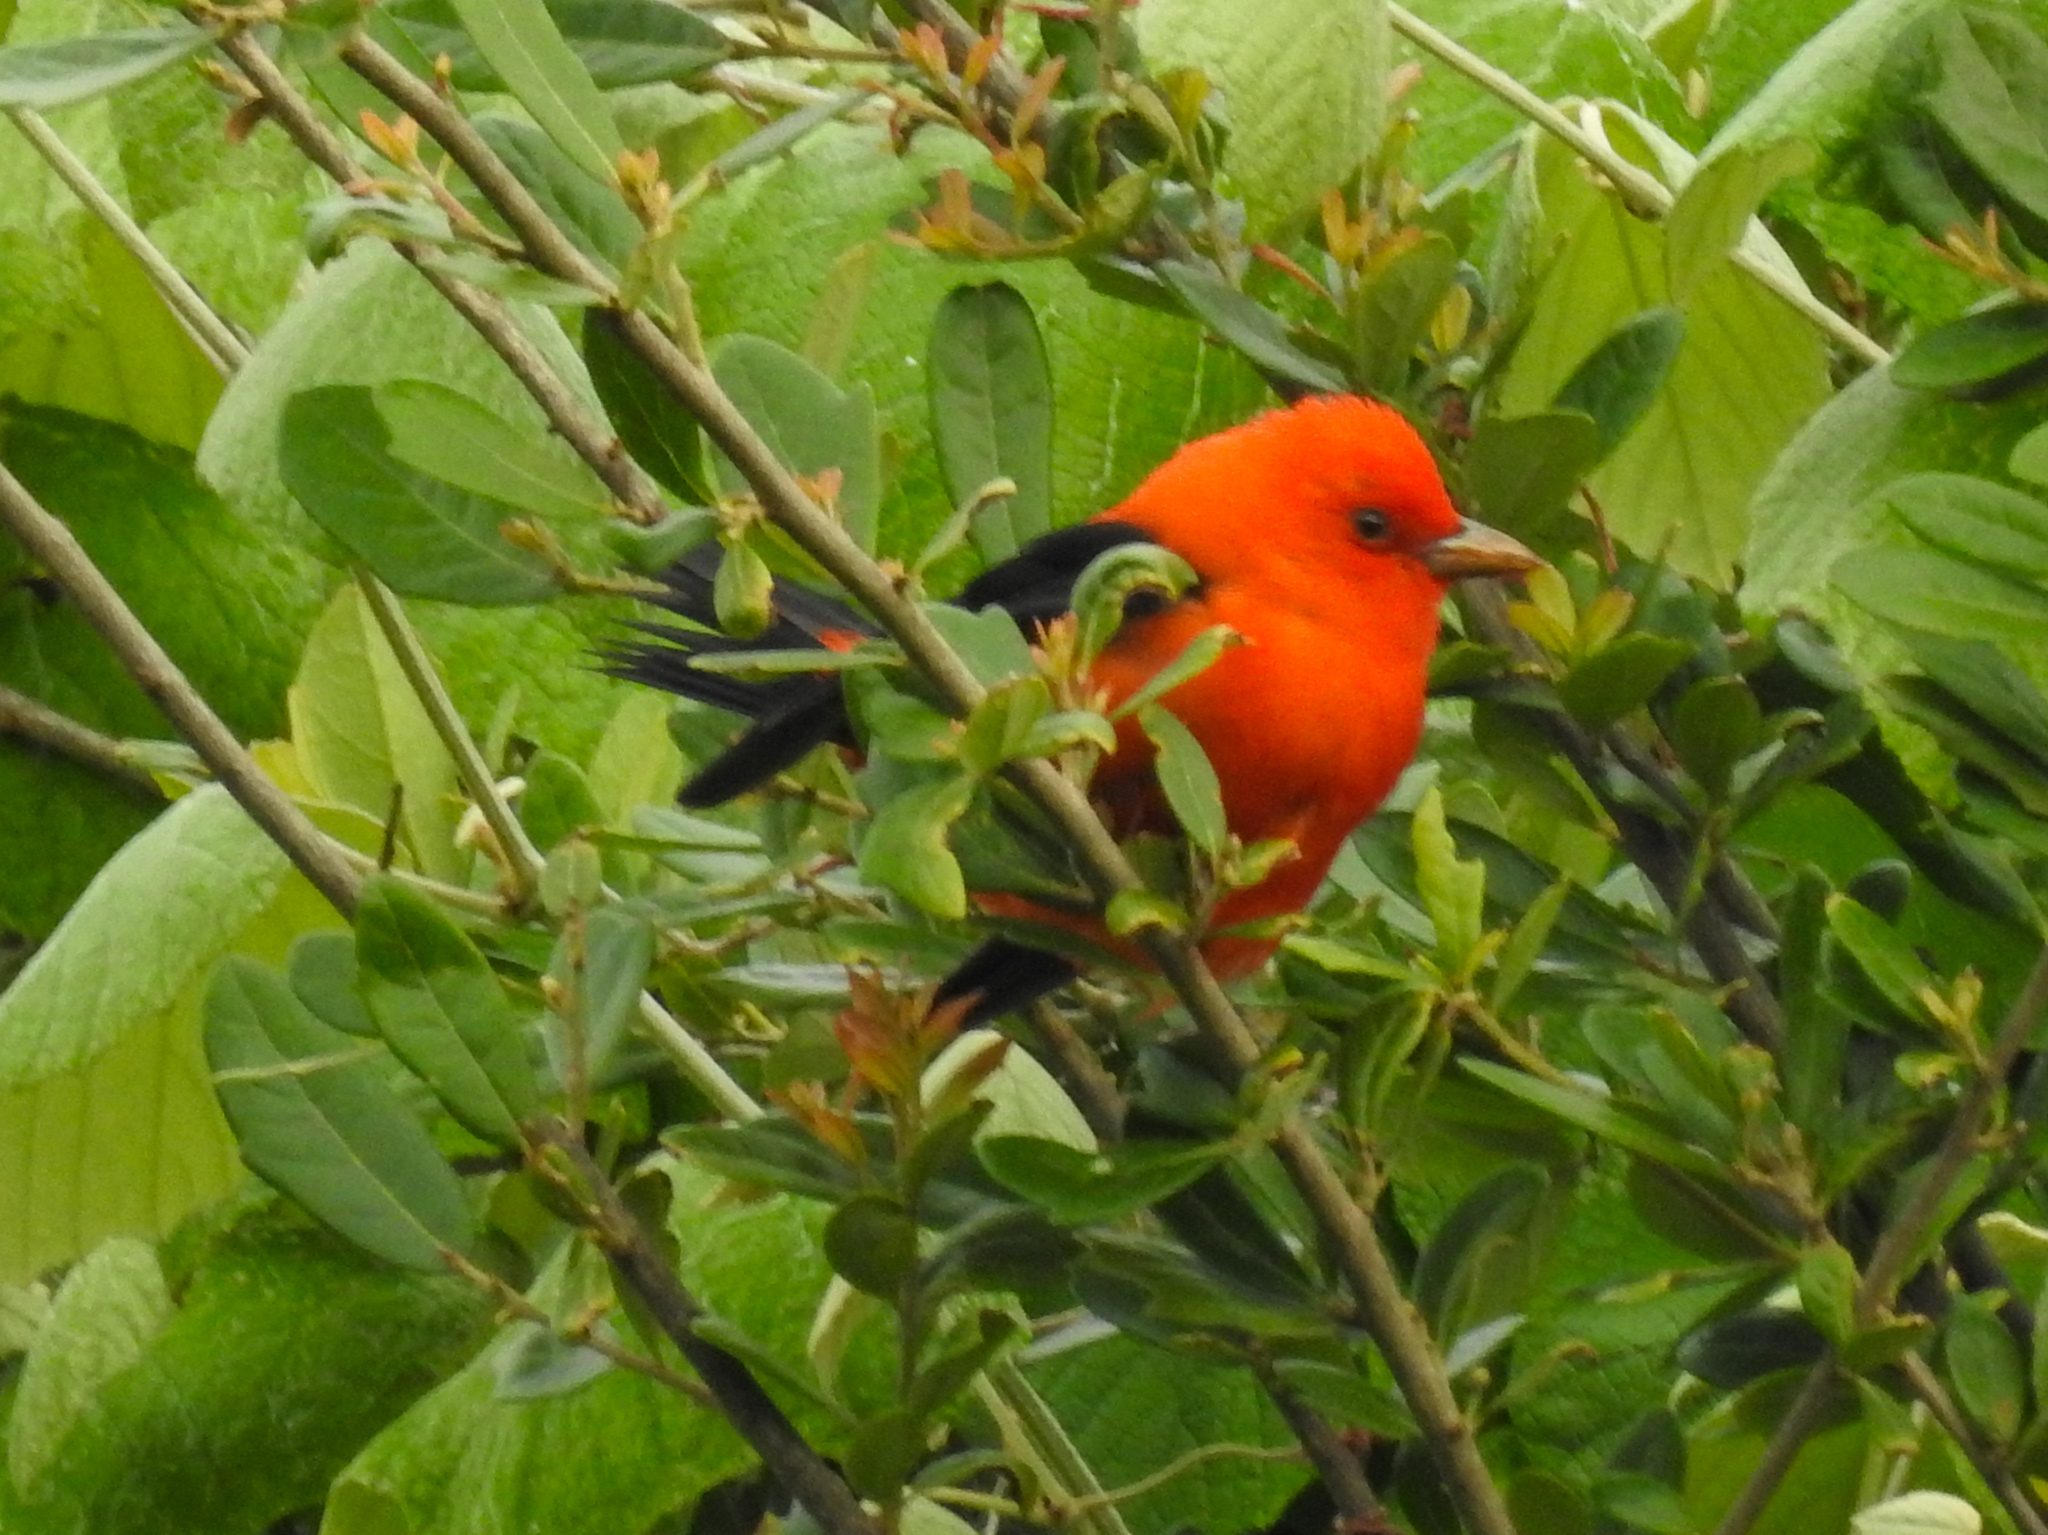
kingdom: Animalia
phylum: Chordata
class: Aves
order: Passeriformes
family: Cardinalidae
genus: Piranga
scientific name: Piranga olivacea
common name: Scarlet tanager
